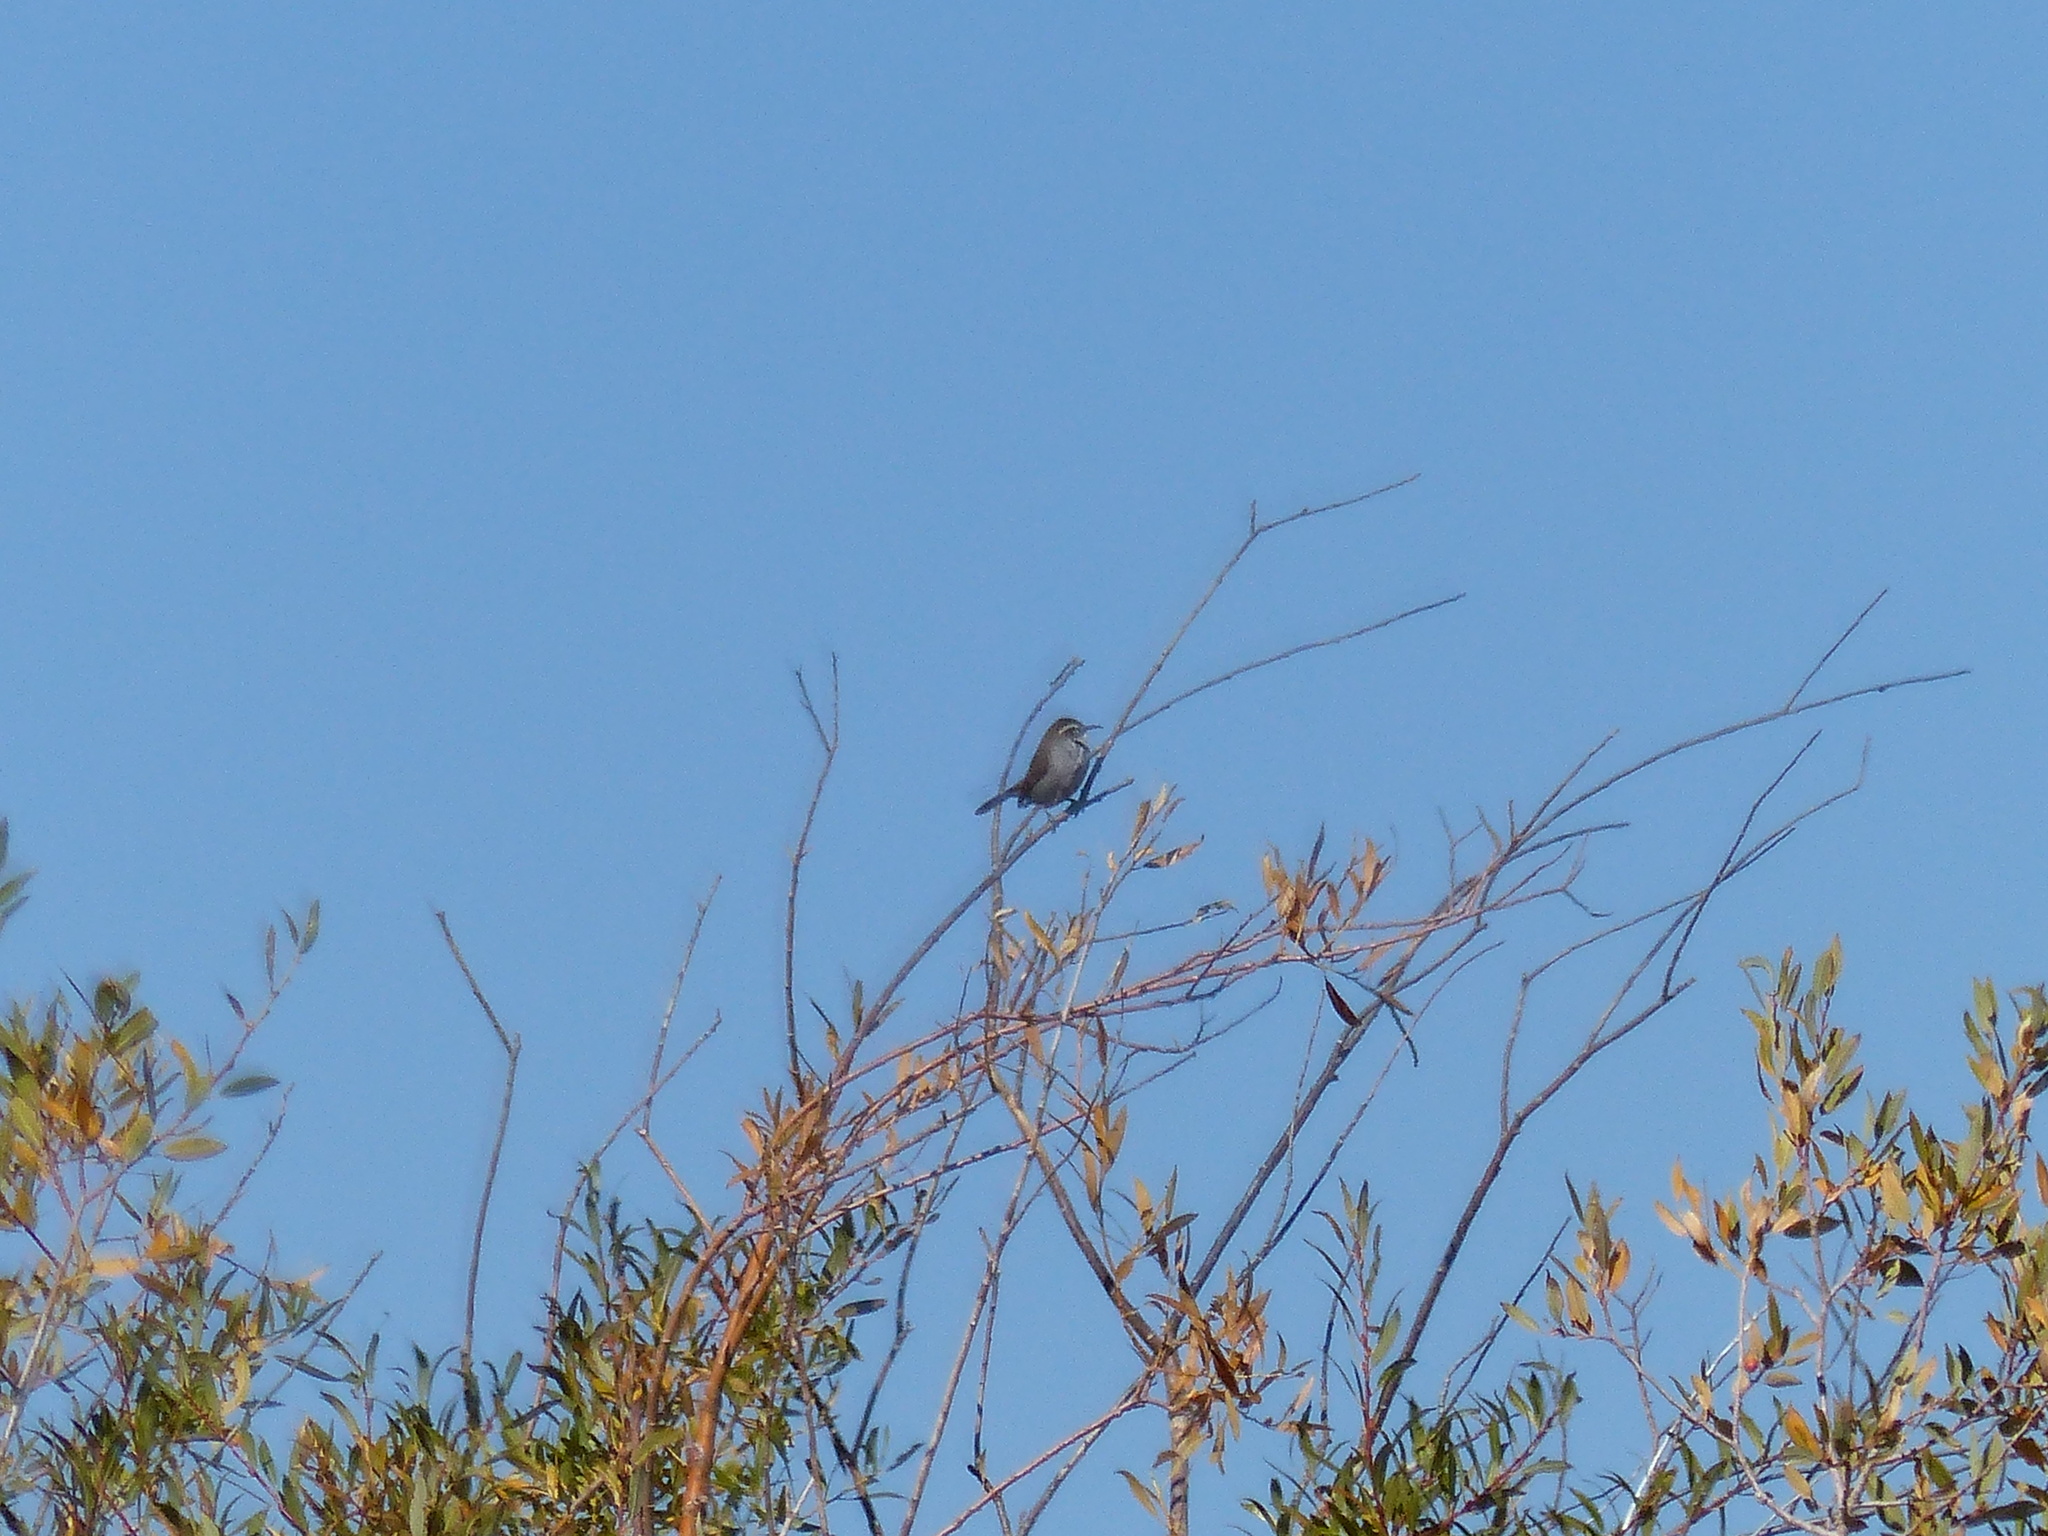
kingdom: Animalia
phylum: Chordata
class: Aves
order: Passeriformes
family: Troglodytidae
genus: Thryomanes
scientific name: Thryomanes bewickii
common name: Bewick's wren
